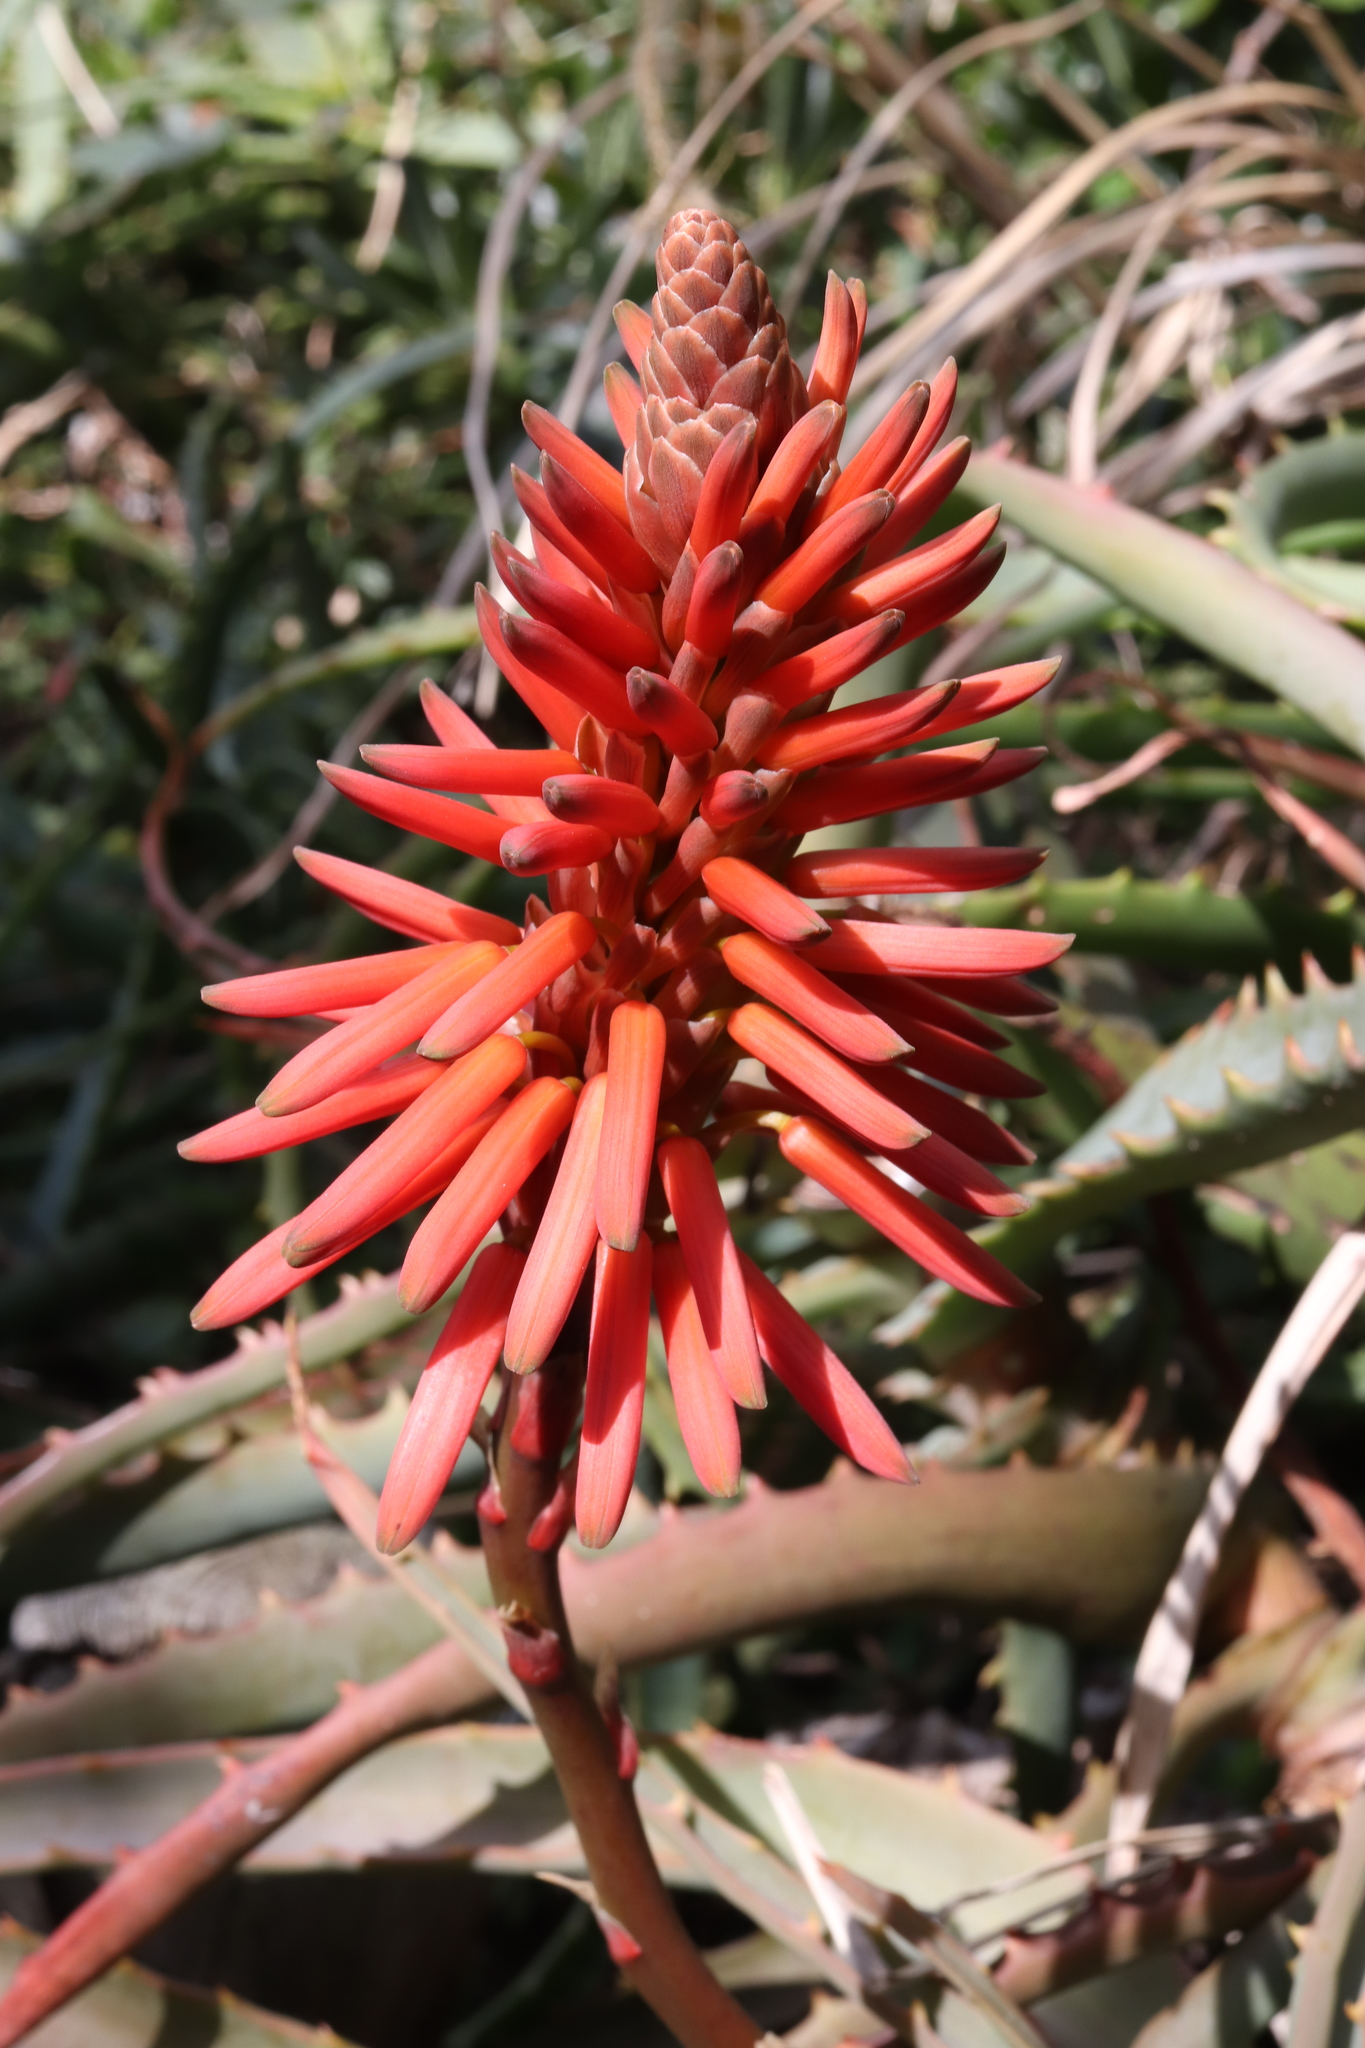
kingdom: Plantae
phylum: Tracheophyta
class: Liliopsida
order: Asparagales
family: Asphodelaceae
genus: Aloe
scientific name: Aloe arborescens
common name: Candelabra aloe
